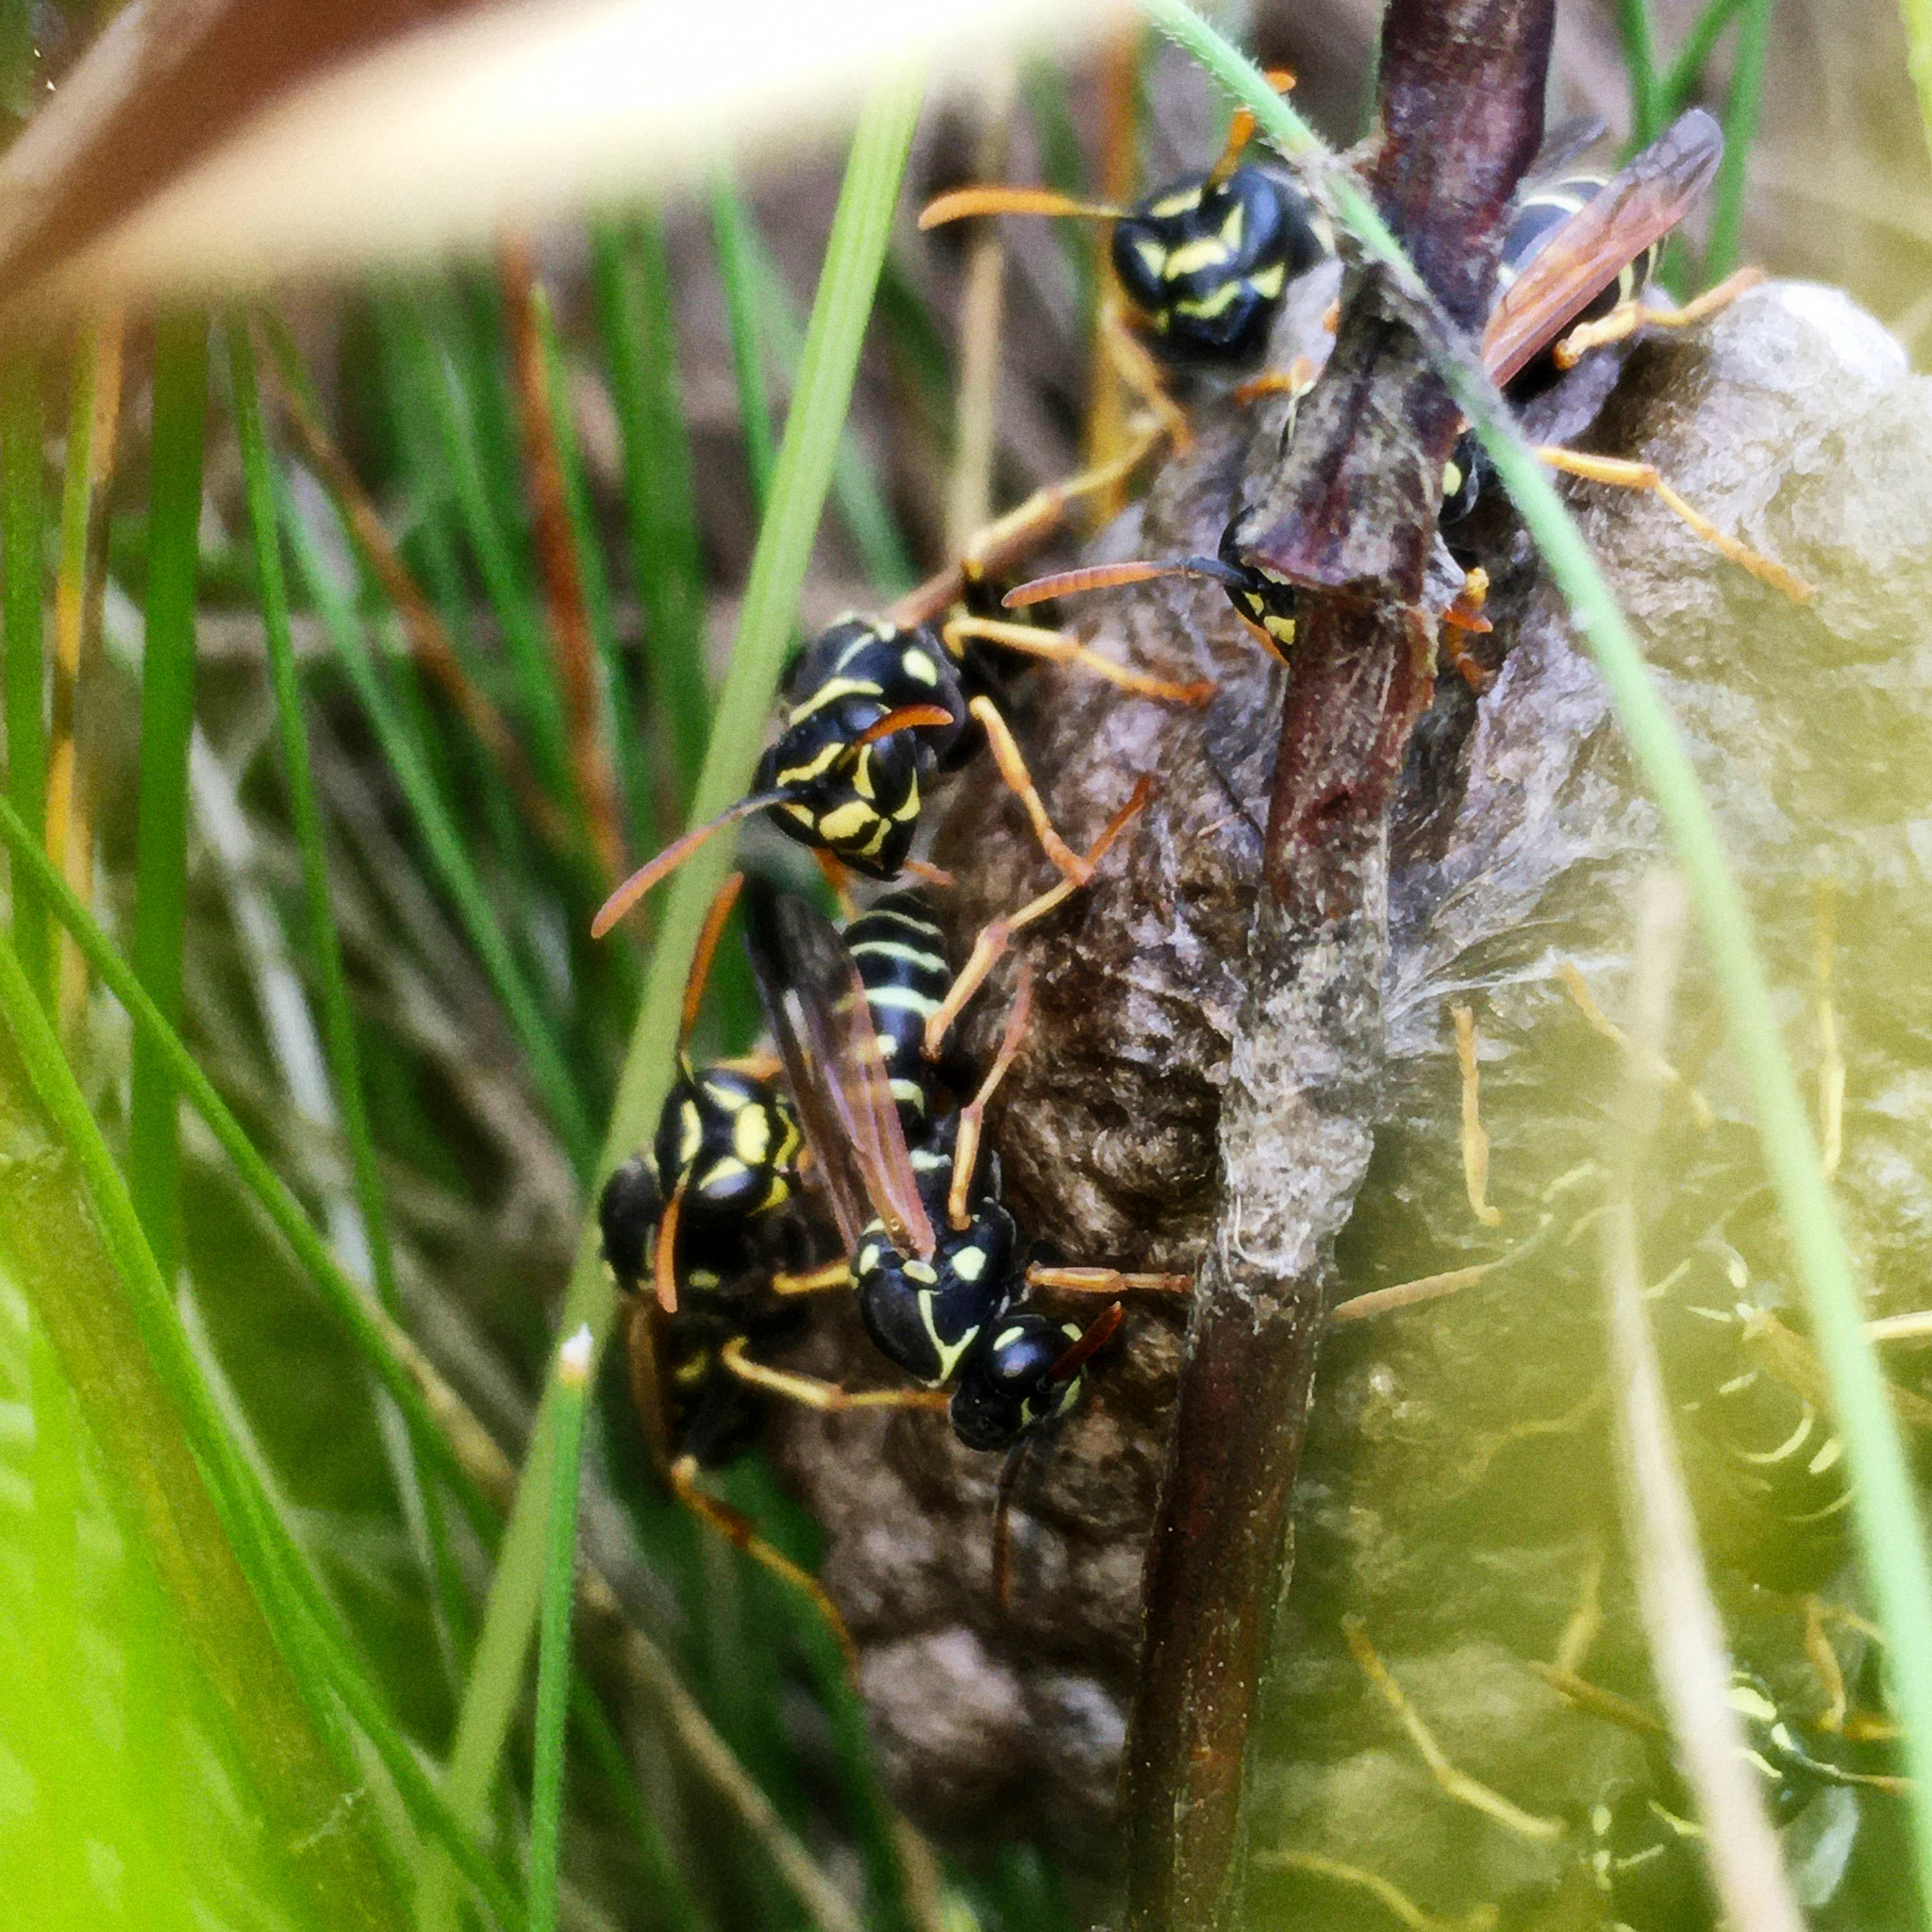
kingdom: Animalia
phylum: Arthropoda
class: Insecta
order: Hymenoptera
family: Eumenidae
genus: Polistes
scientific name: Polistes nimpha
